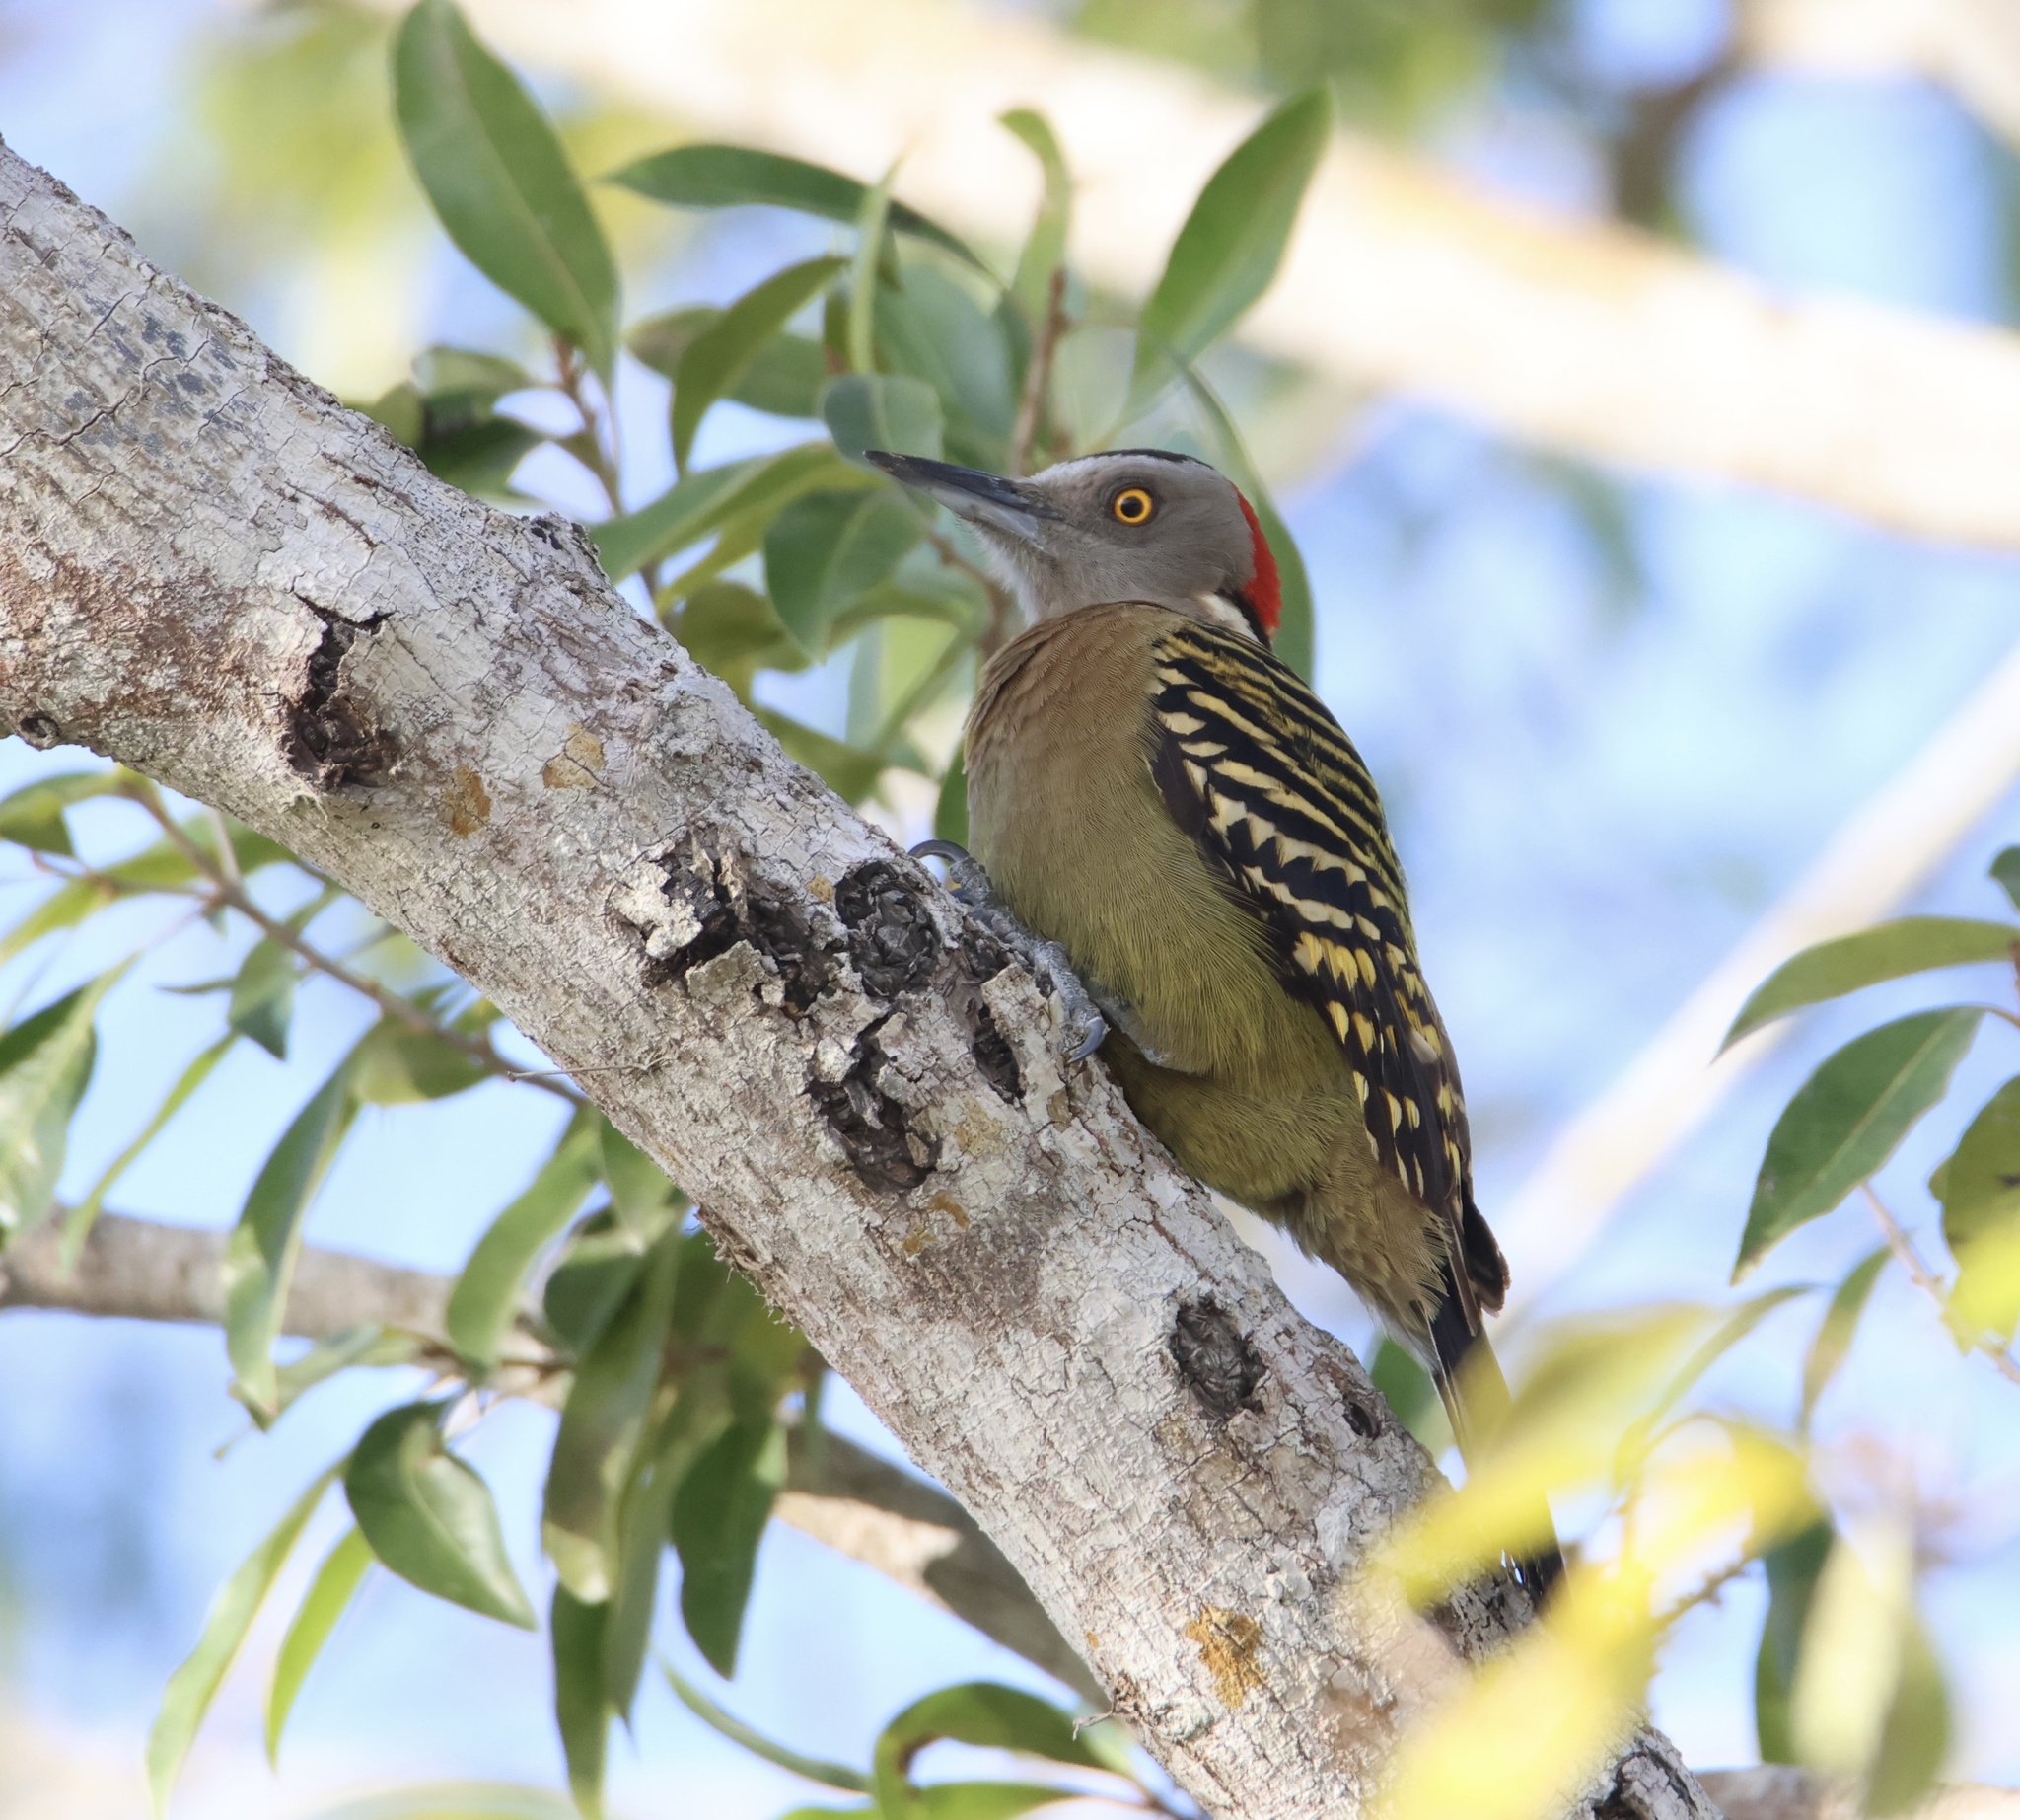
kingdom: Animalia
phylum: Chordata
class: Aves
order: Piciformes
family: Picidae
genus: Melanerpes
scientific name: Melanerpes striatus
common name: Hispaniolan woodpecker
